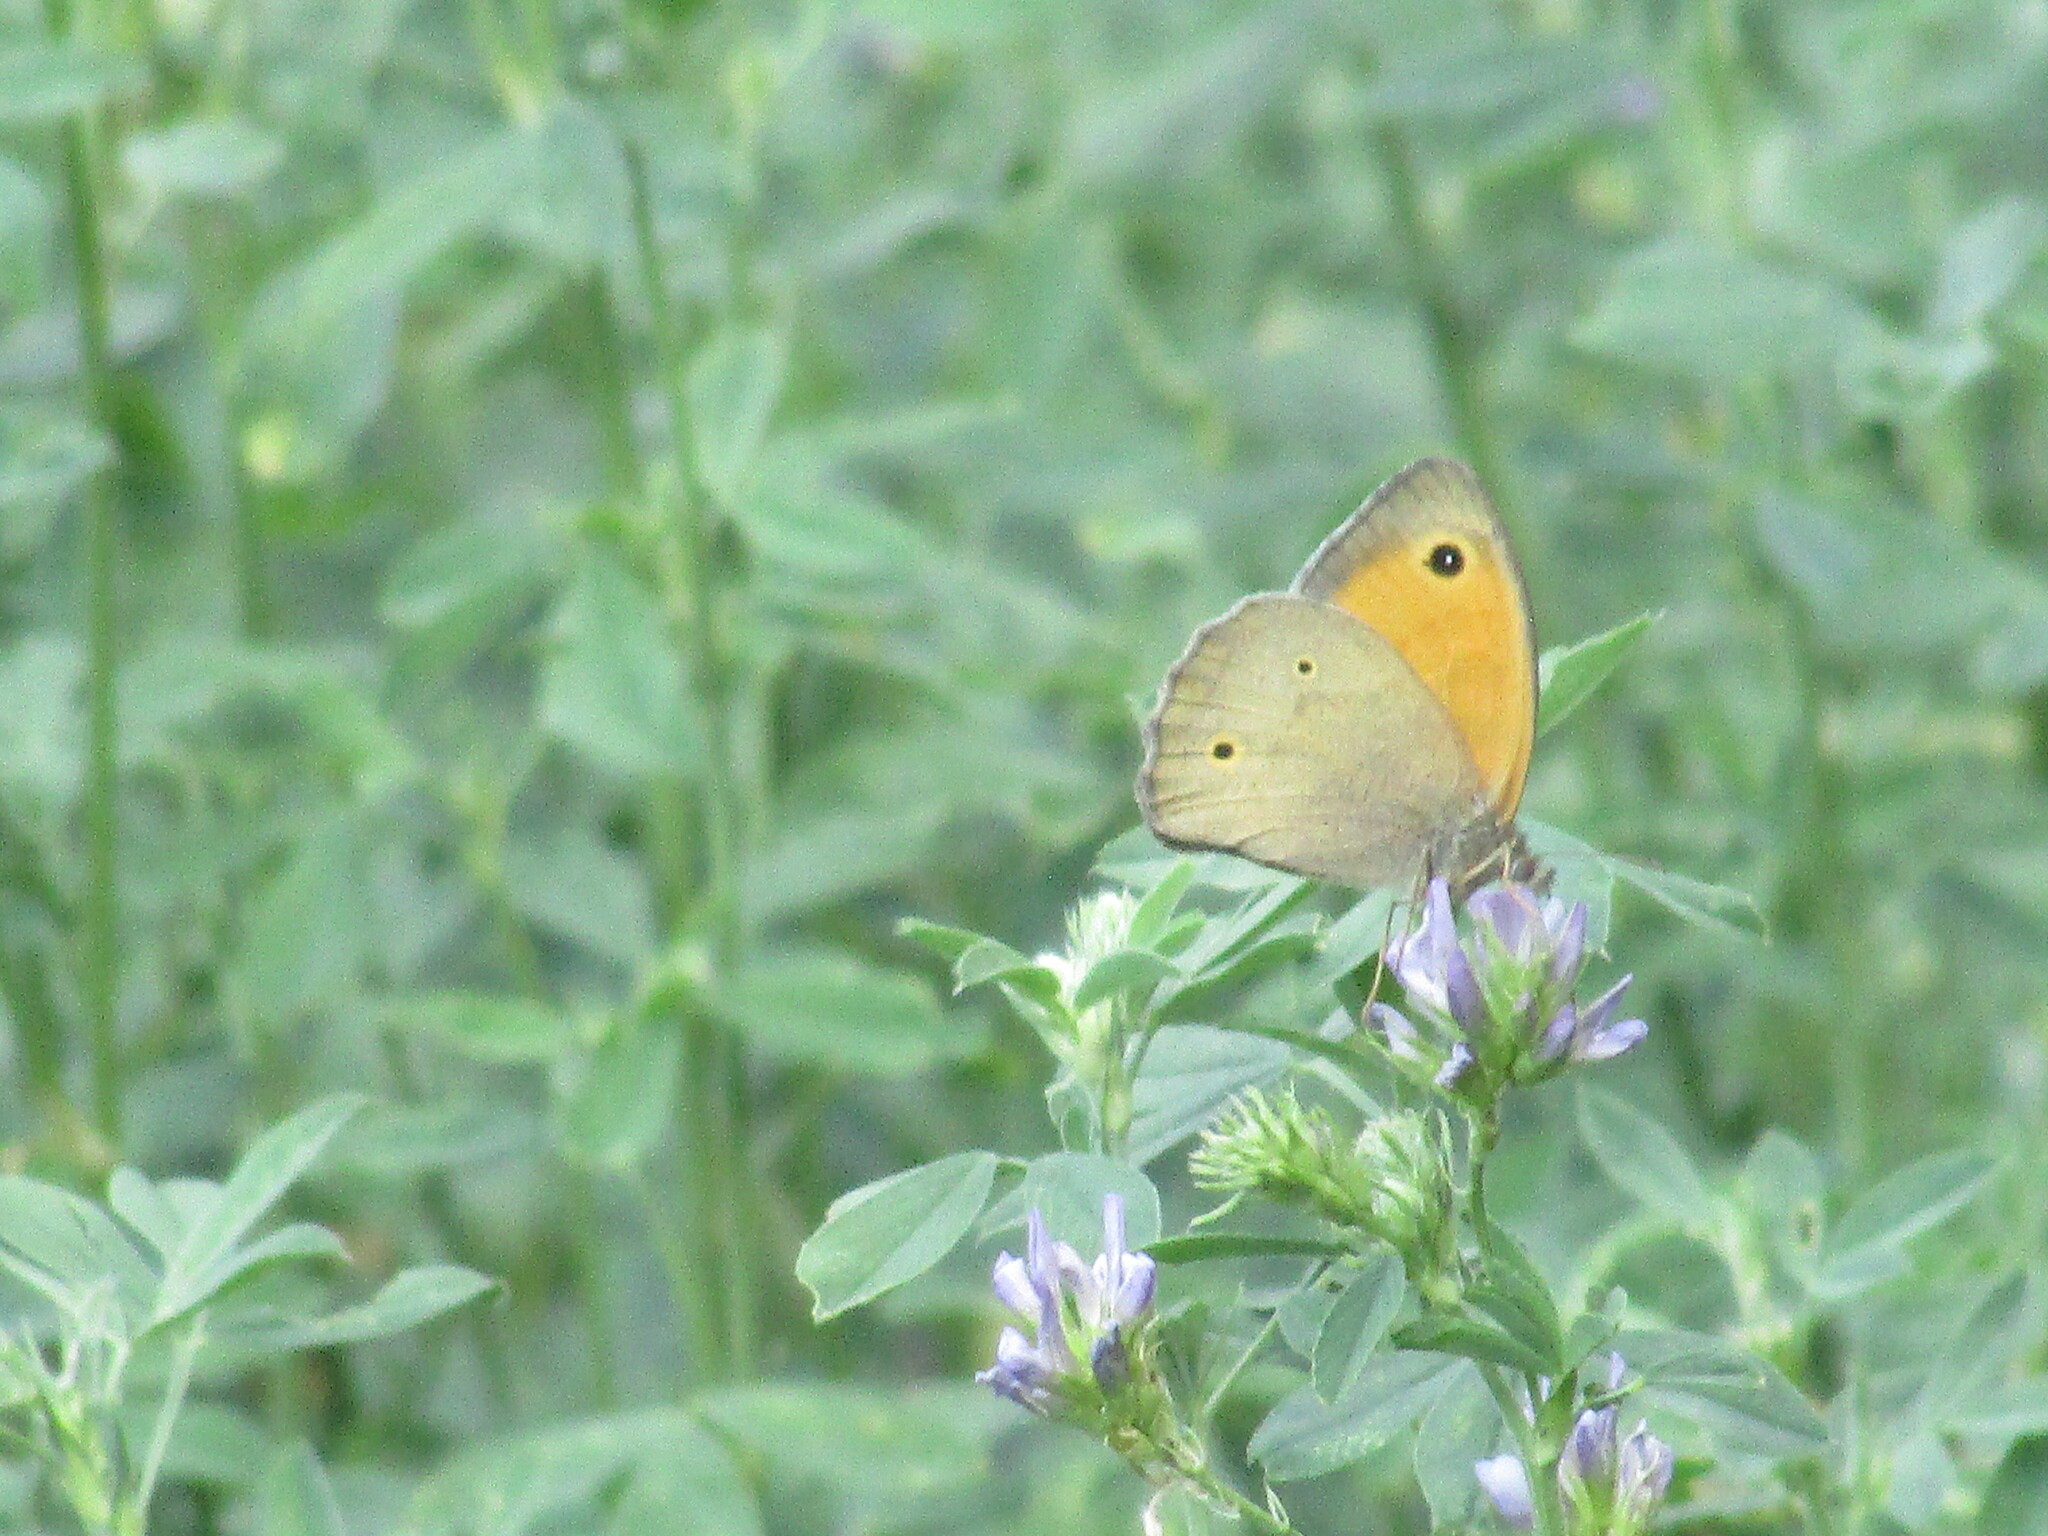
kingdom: Animalia
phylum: Arthropoda
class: Insecta
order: Lepidoptera
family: Nymphalidae
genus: Maniola
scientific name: Maniola jurtina
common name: Meadow brown
